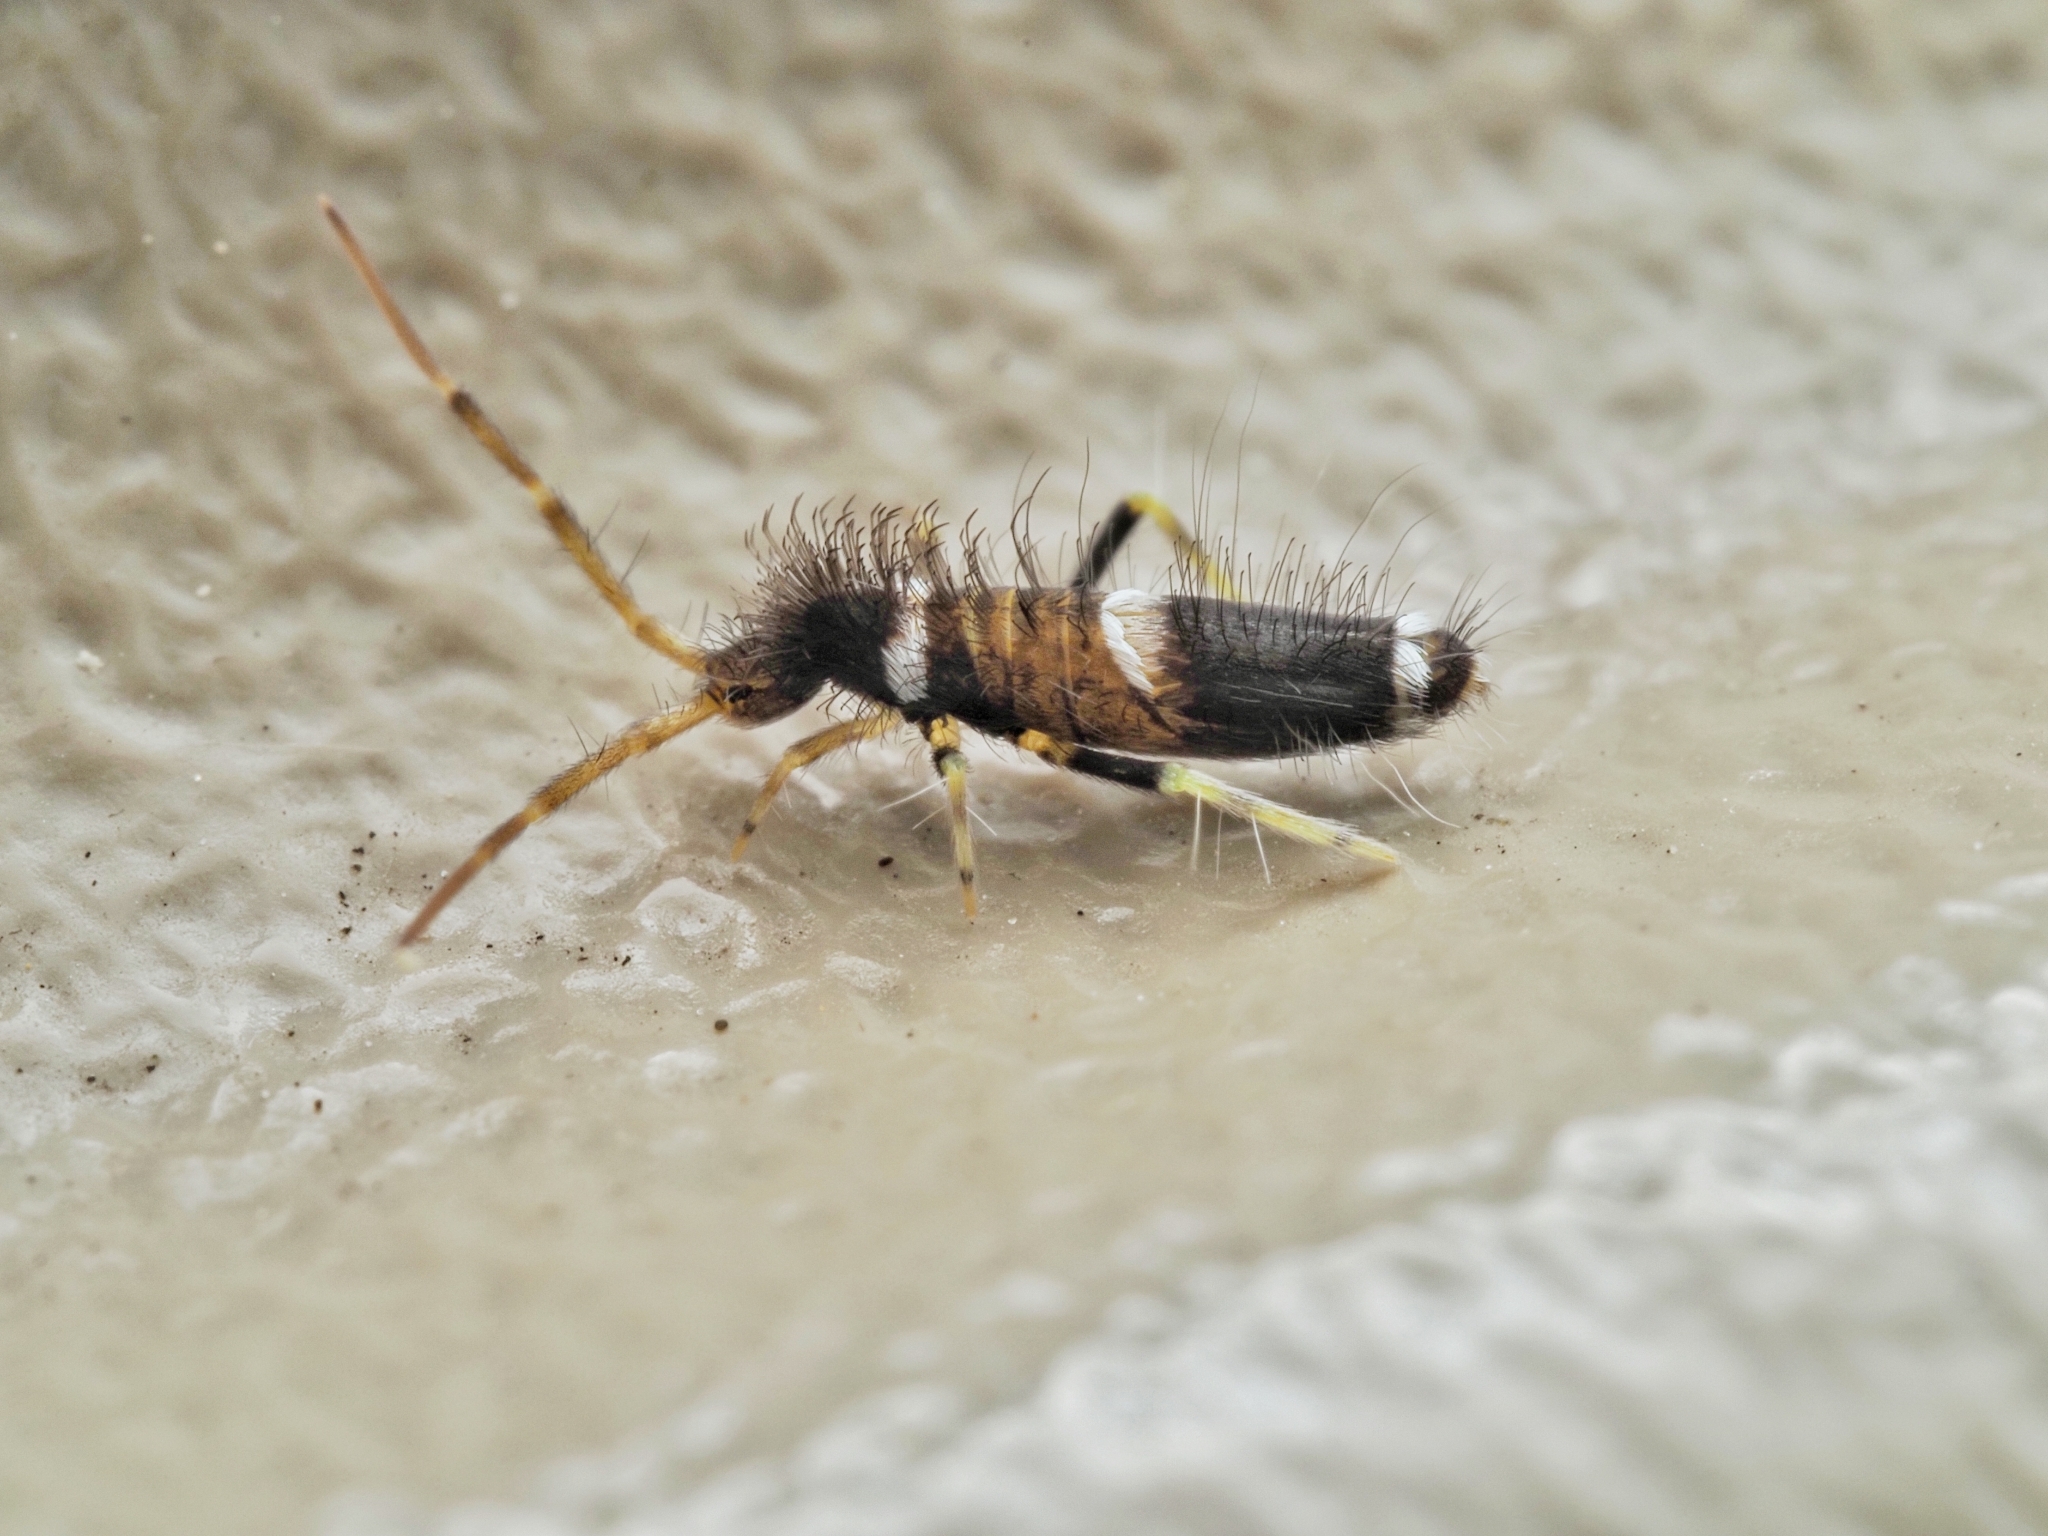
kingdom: Animalia
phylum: Arthropoda
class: Collembola
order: Entomobryomorpha
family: Entomobryidae
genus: Entomobrya
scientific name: Entomobrya dorsalis
